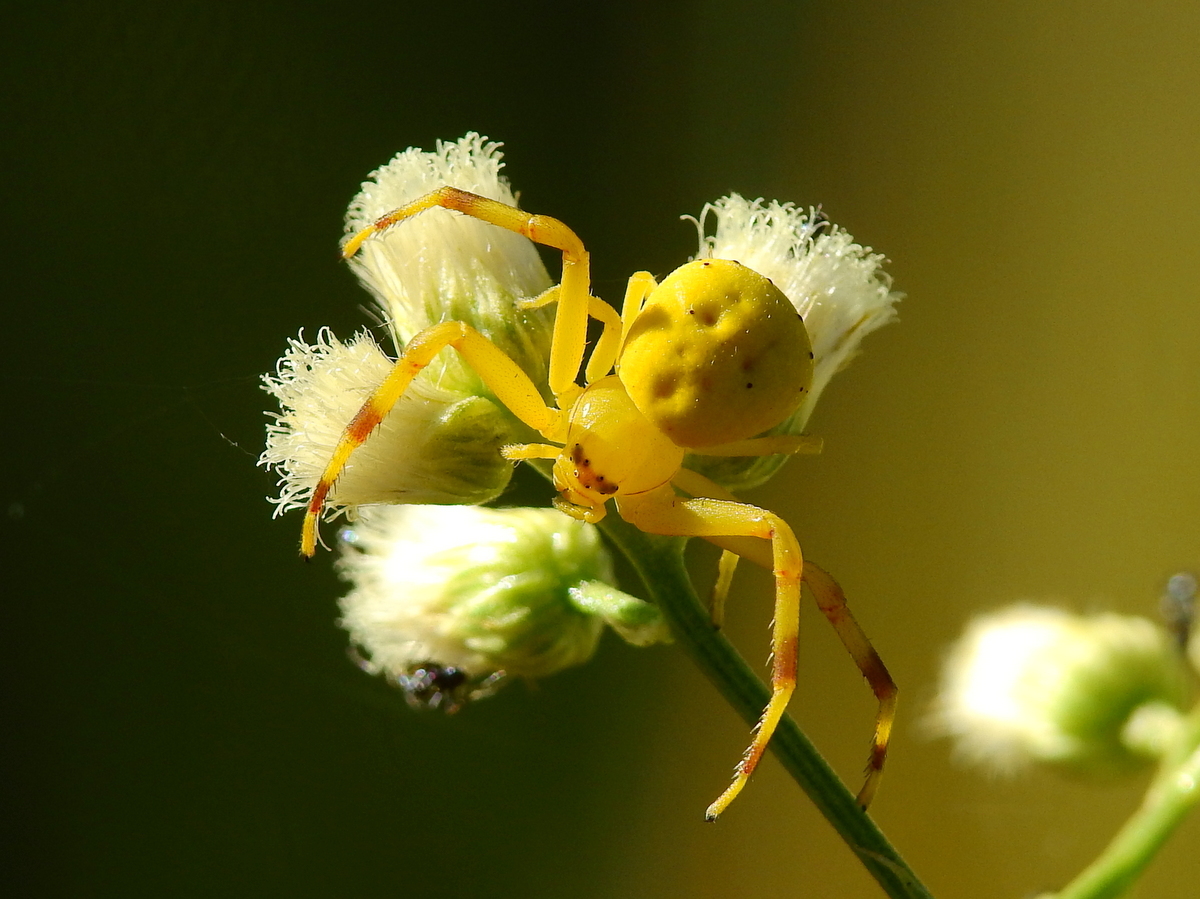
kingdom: Animalia
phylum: Arthropoda
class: Arachnida
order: Araneae
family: Thomisidae
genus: Misumenops
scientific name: Misumenops
